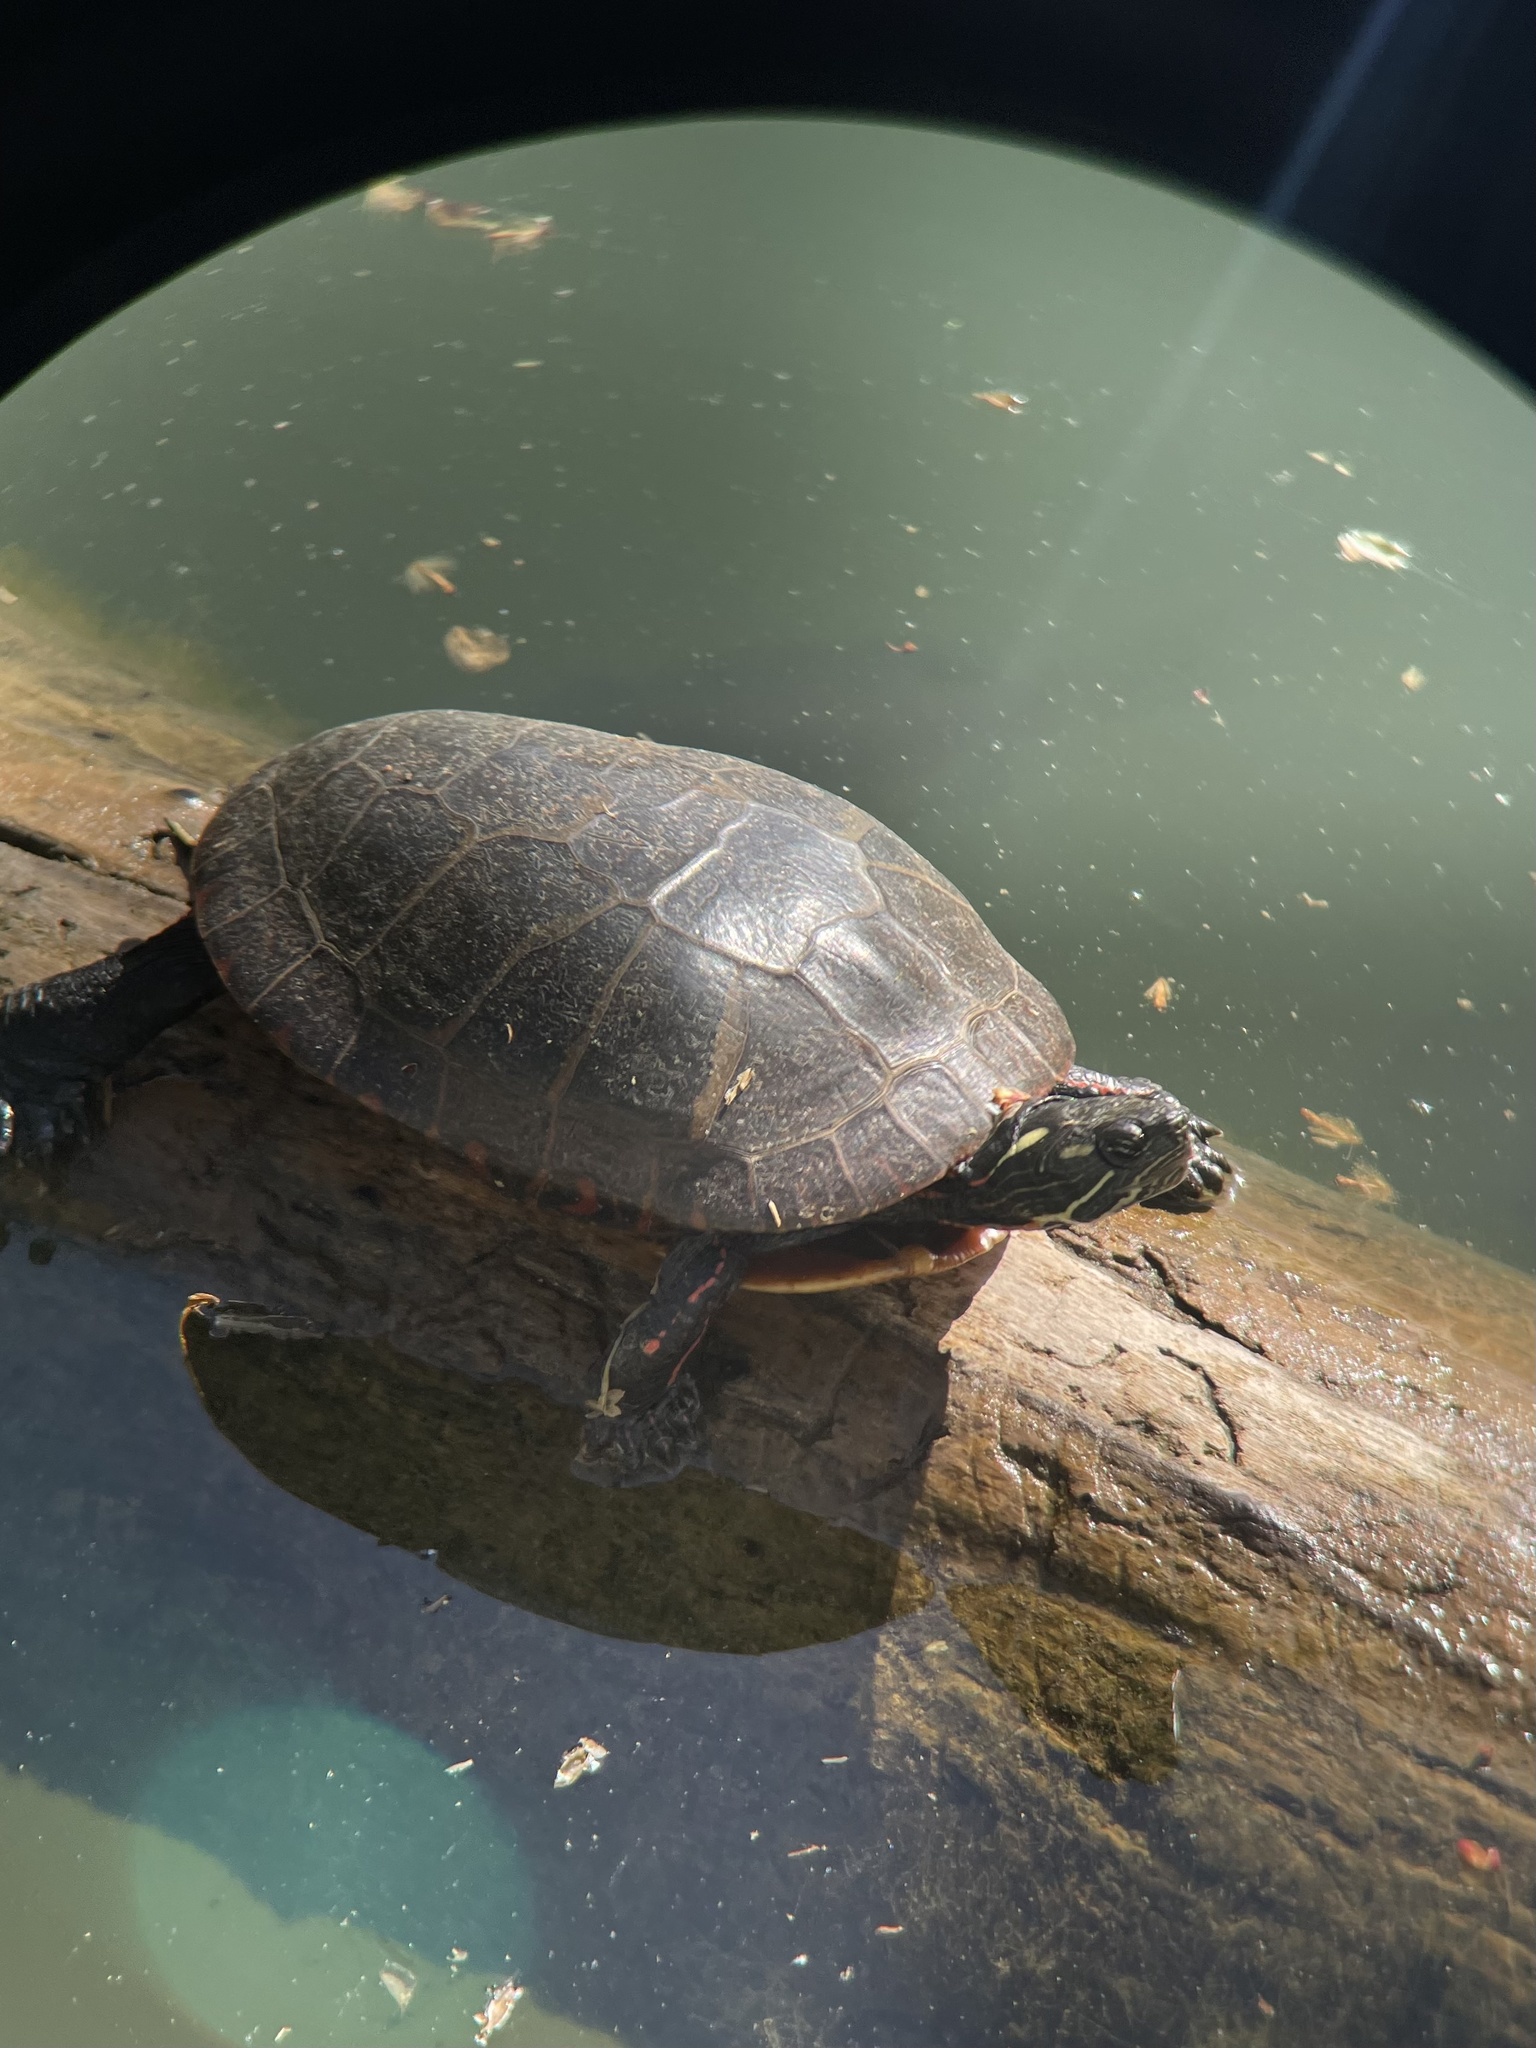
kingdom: Animalia
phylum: Chordata
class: Testudines
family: Emydidae
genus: Chrysemys
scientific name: Chrysemys picta
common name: Painted turtle
